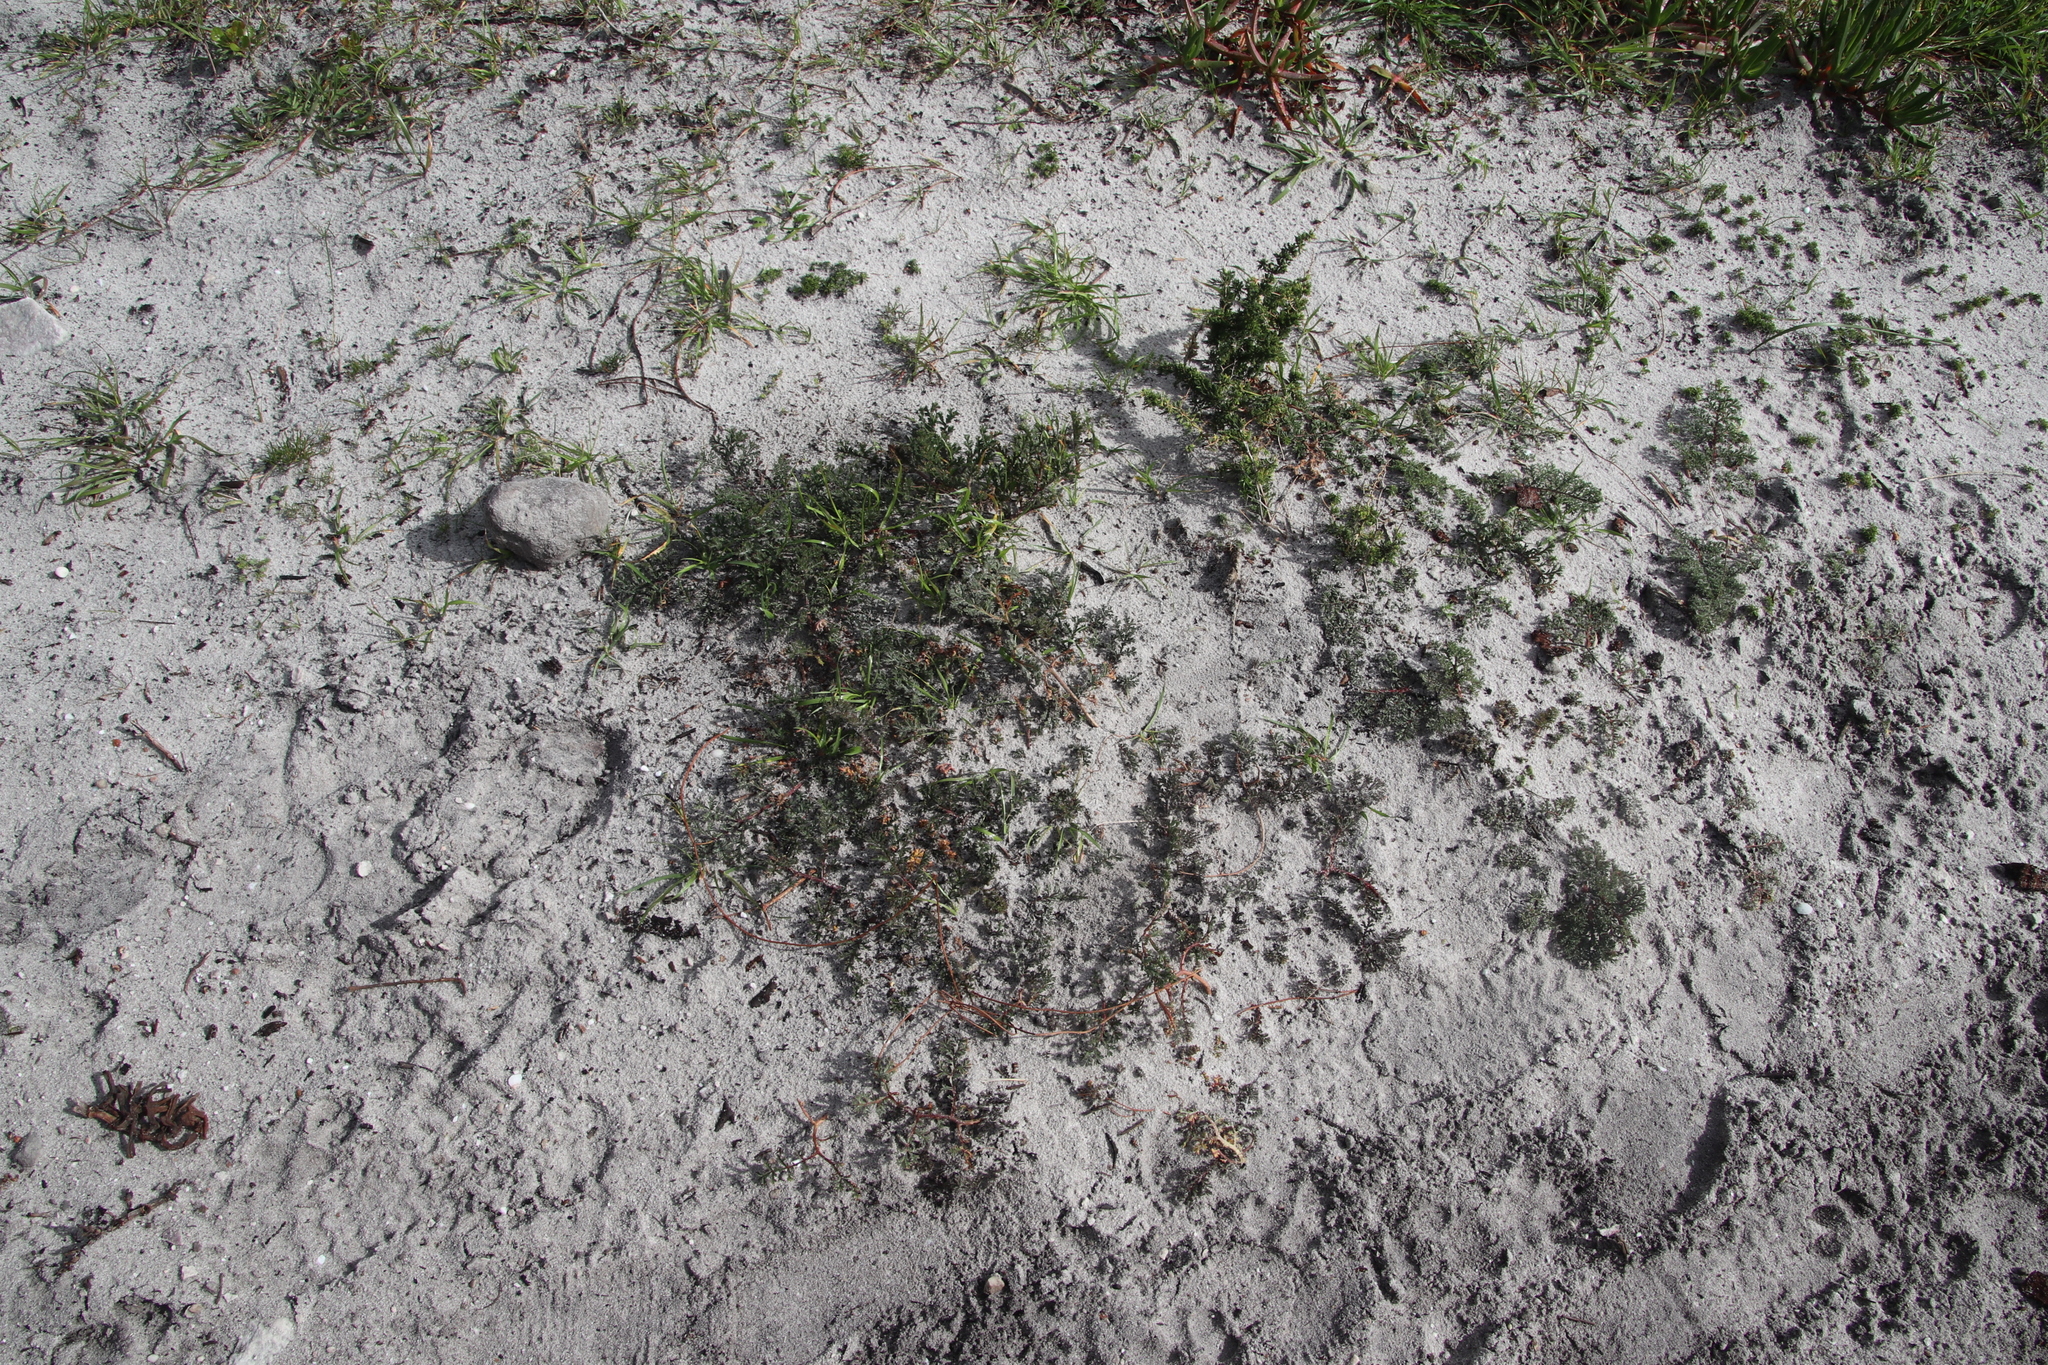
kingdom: Plantae
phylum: Tracheophyta
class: Magnoliopsida
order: Geraniales
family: Geraniaceae
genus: Pelargonium
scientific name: Pelargonium triste
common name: Night-scent pelargonium
